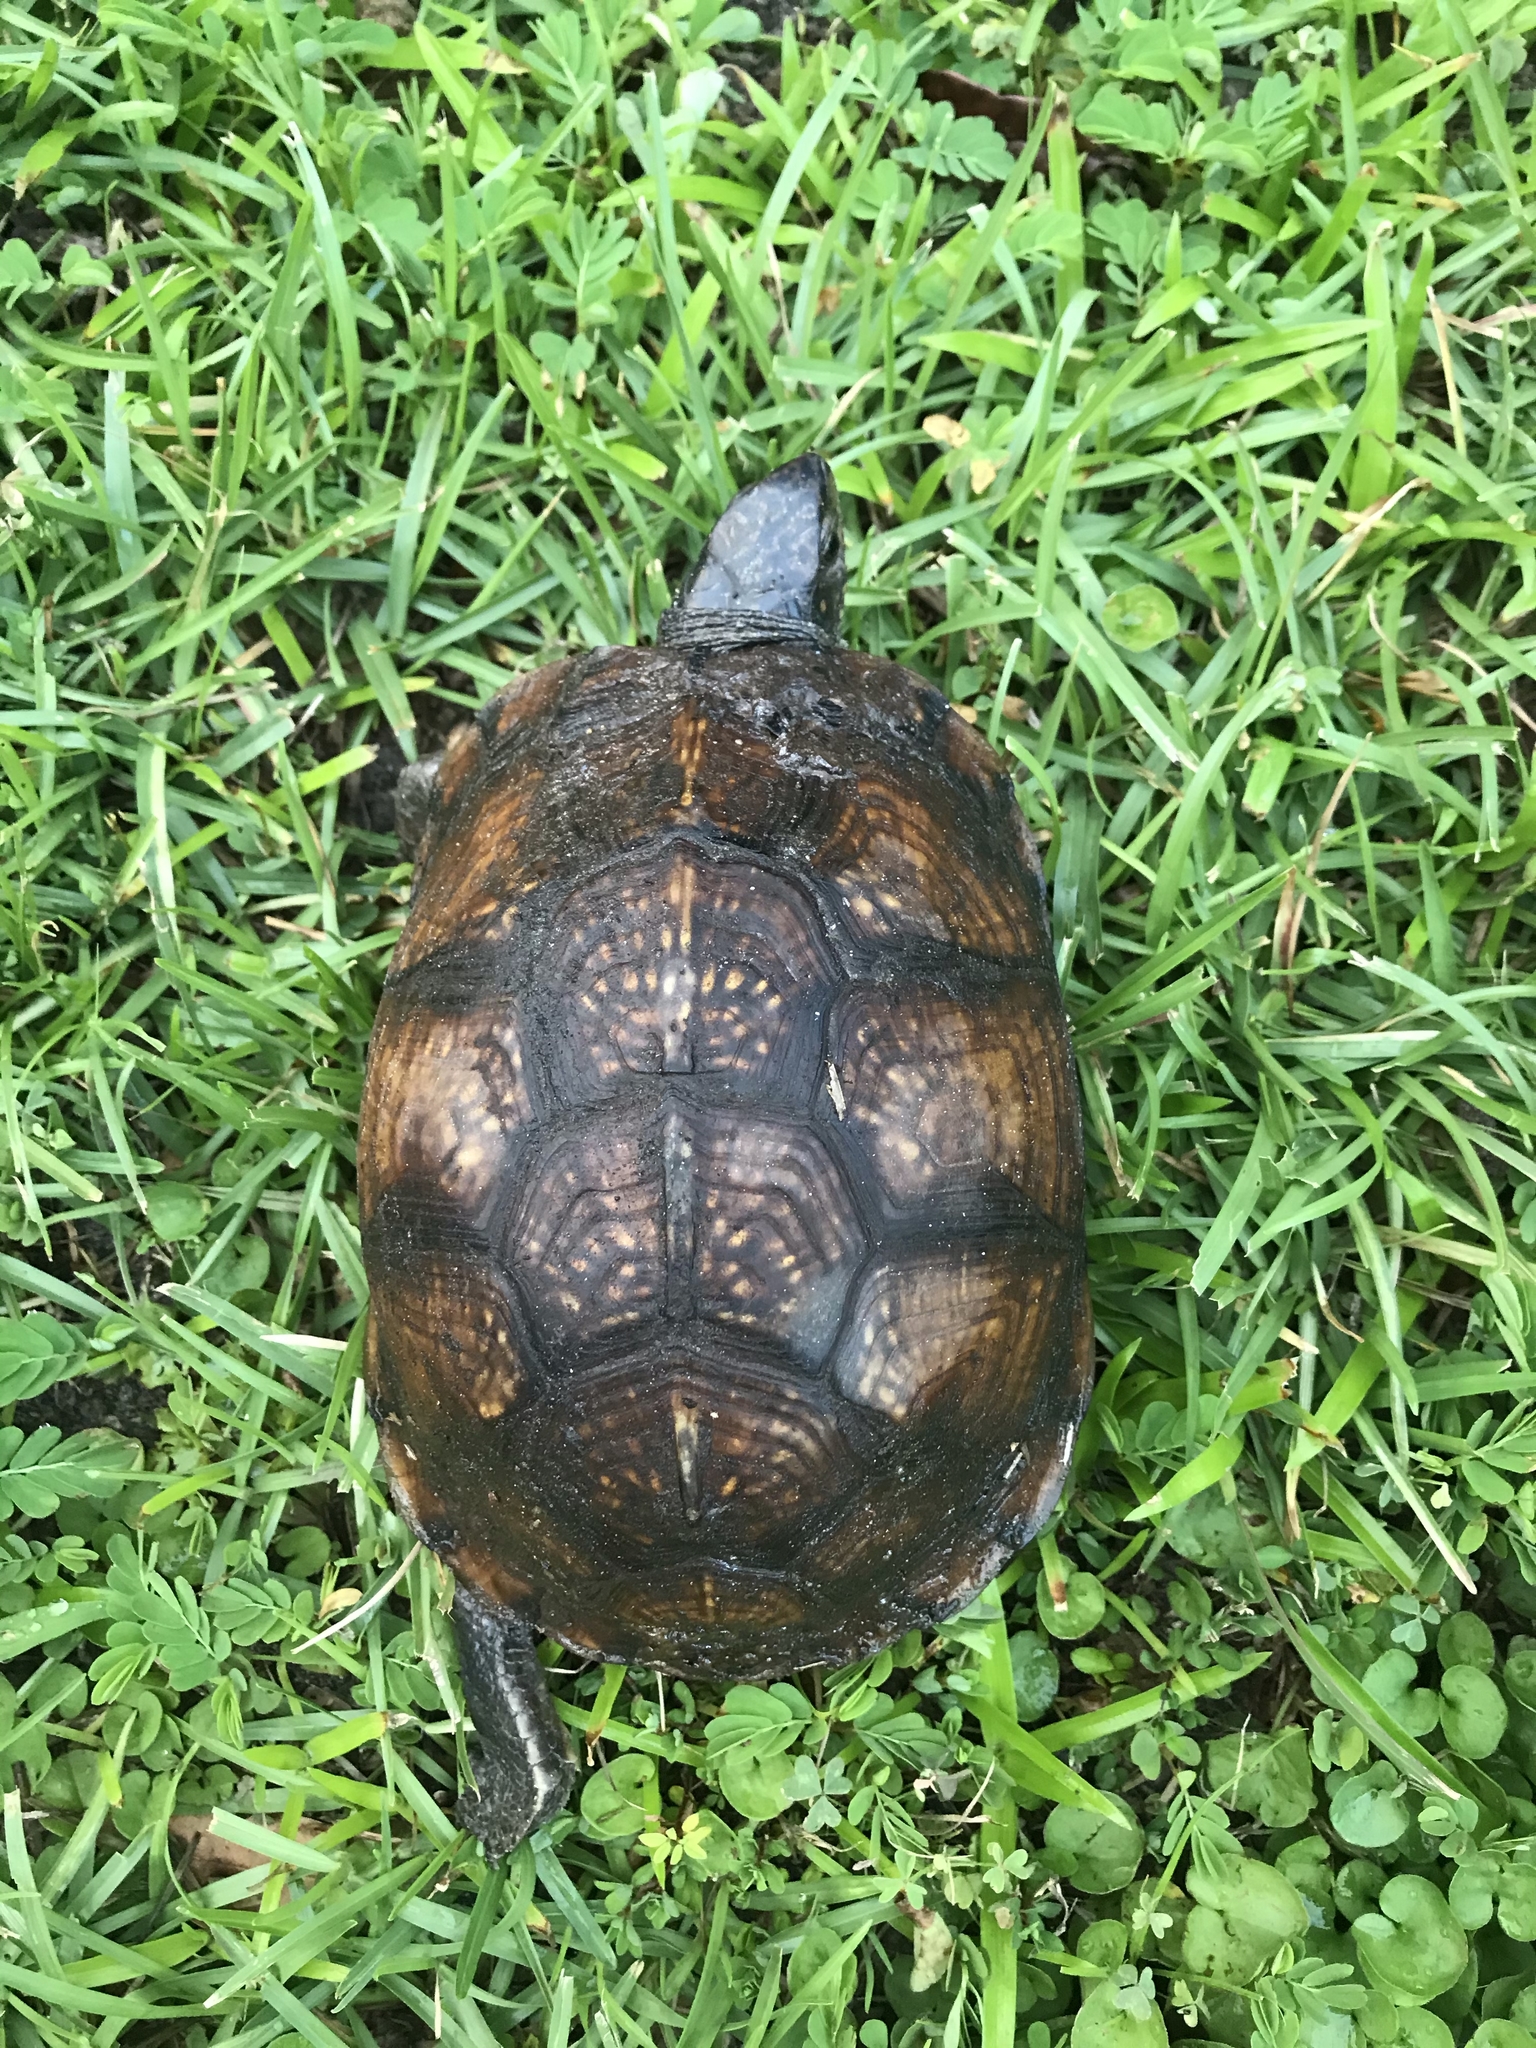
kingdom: Animalia
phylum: Chordata
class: Testudines
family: Emydidae
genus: Terrapene
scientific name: Terrapene carolina
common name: Common box turtle
